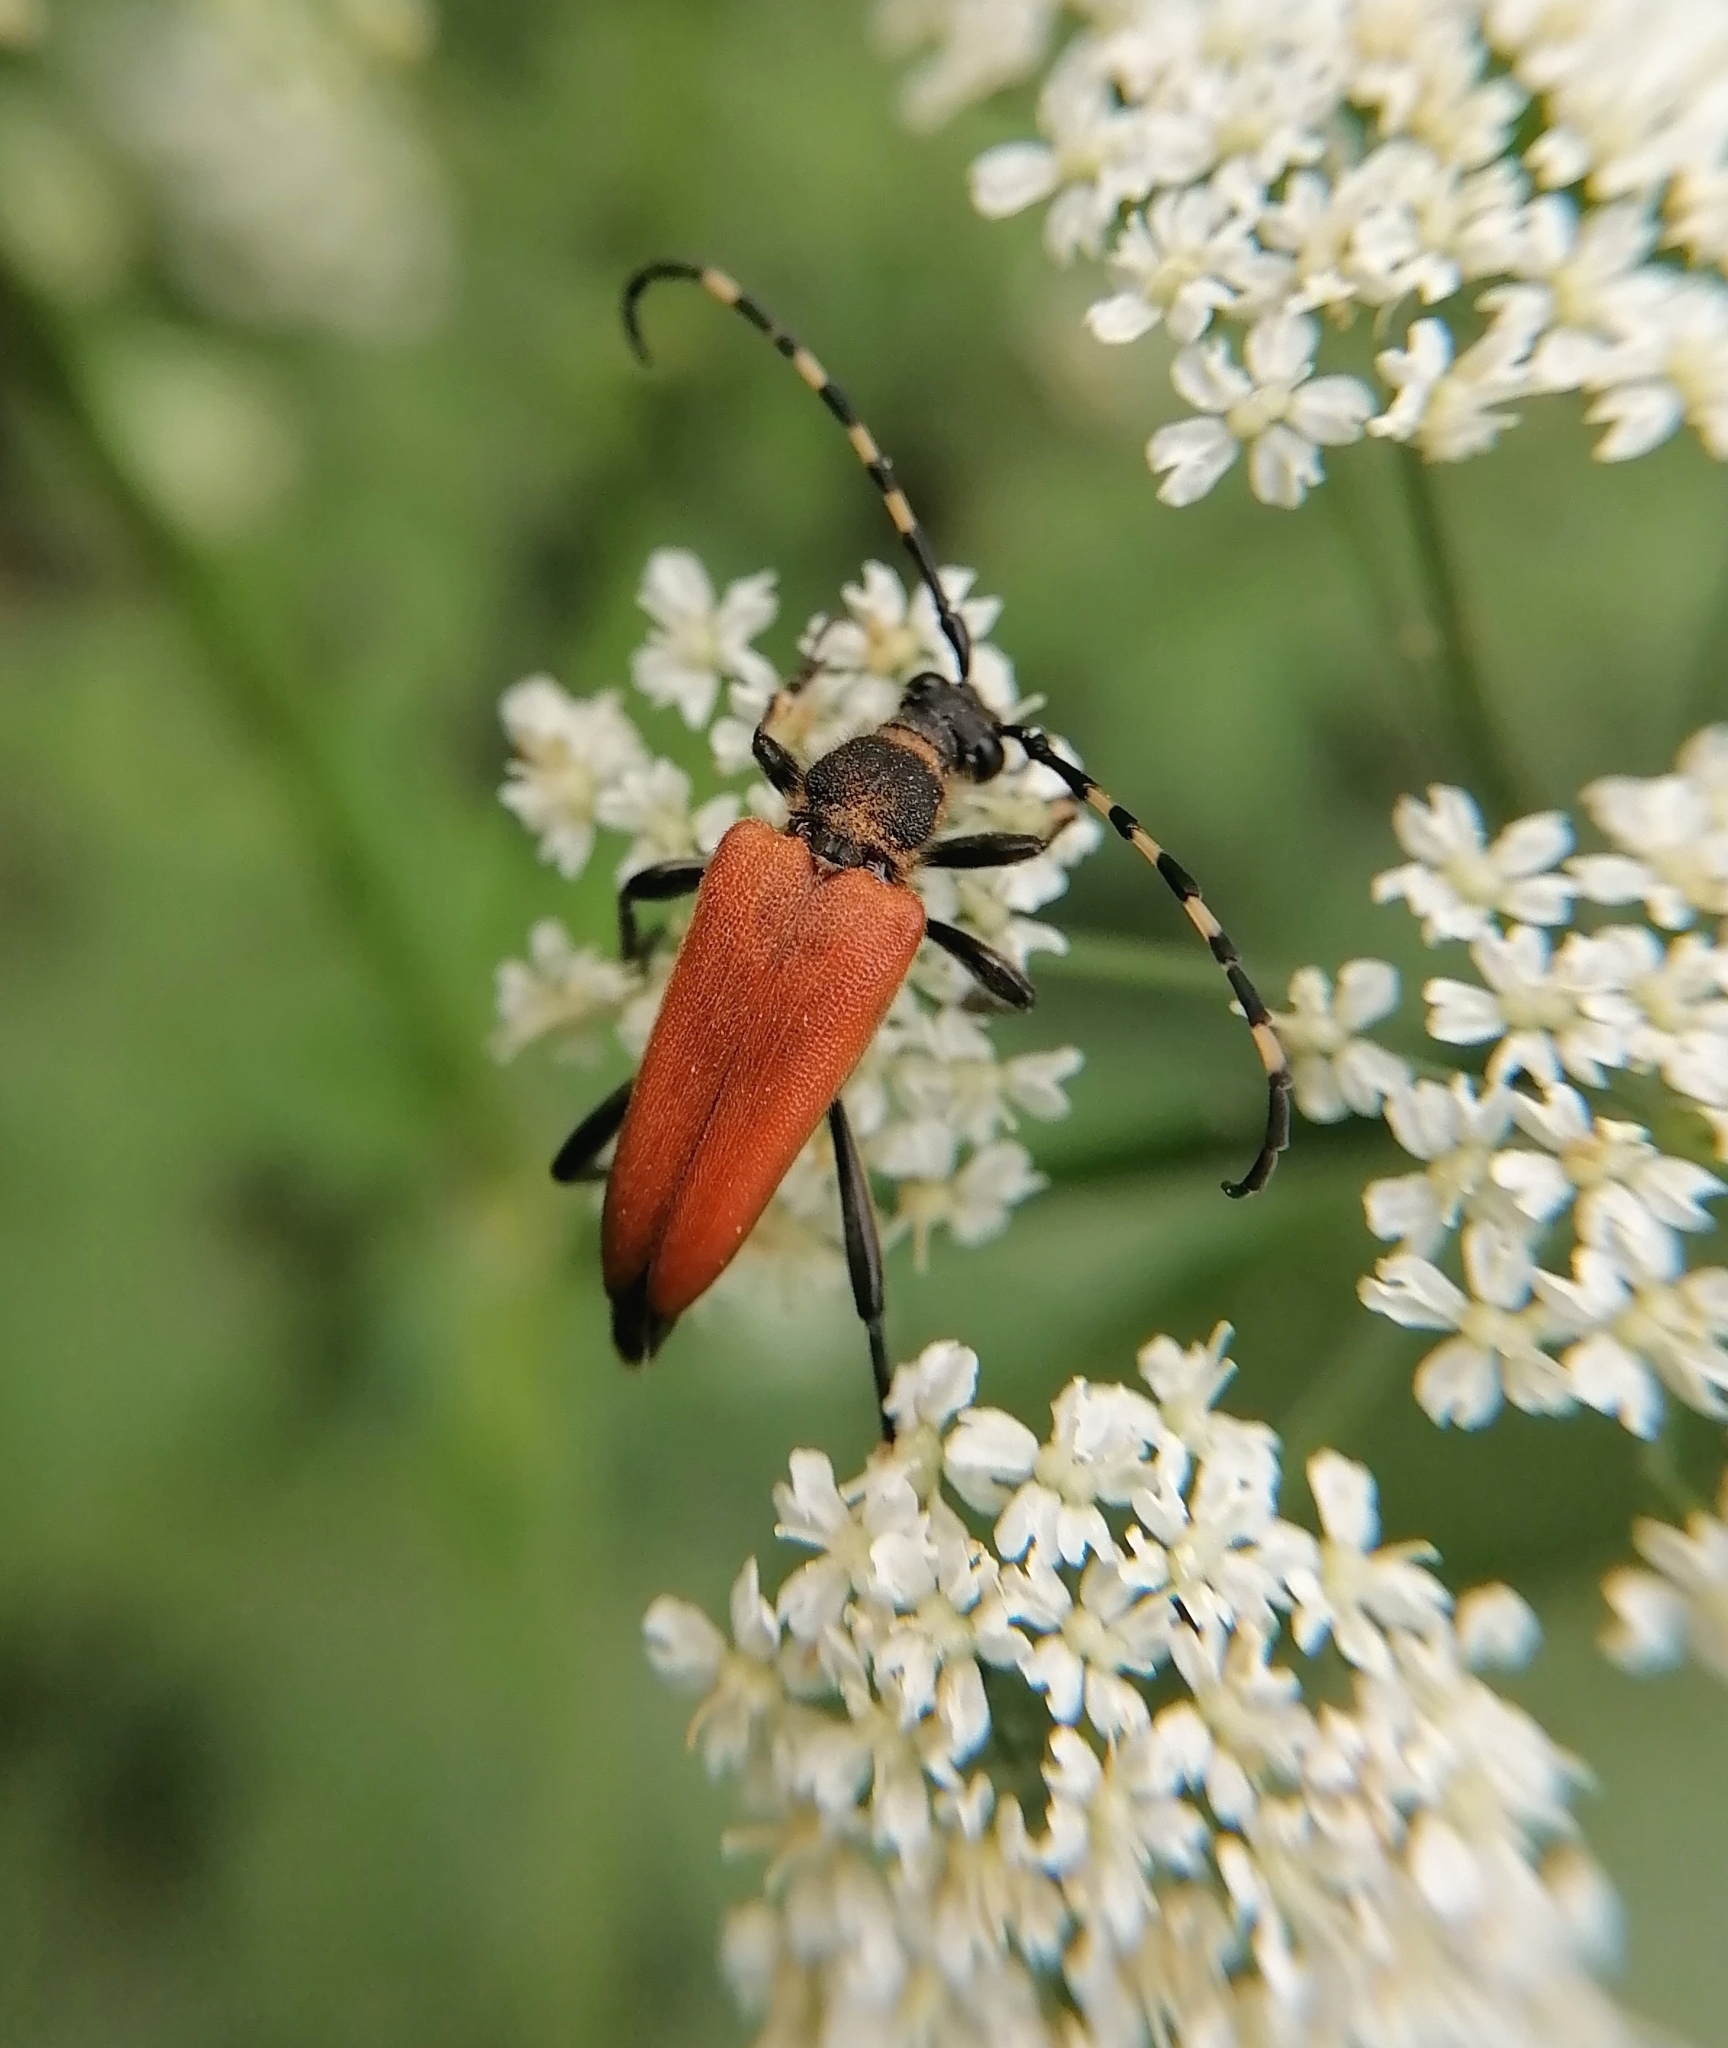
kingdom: Animalia
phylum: Arthropoda
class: Insecta
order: Coleoptera
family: Cerambycidae
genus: Stictoleptura
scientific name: Stictoleptura variicornis
